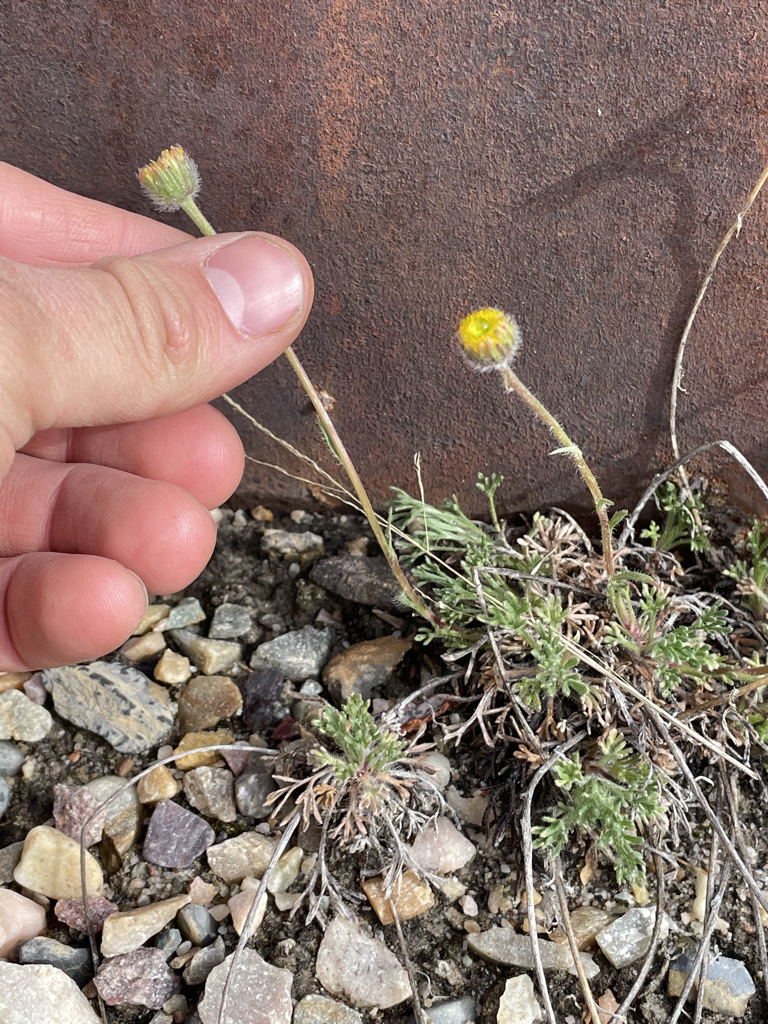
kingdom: Plantae
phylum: Tracheophyta
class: Magnoliopsida
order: Asterales
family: Asteraceae
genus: Erigeron
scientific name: Erigeron compositus
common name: Dwarf mountain fleabane
